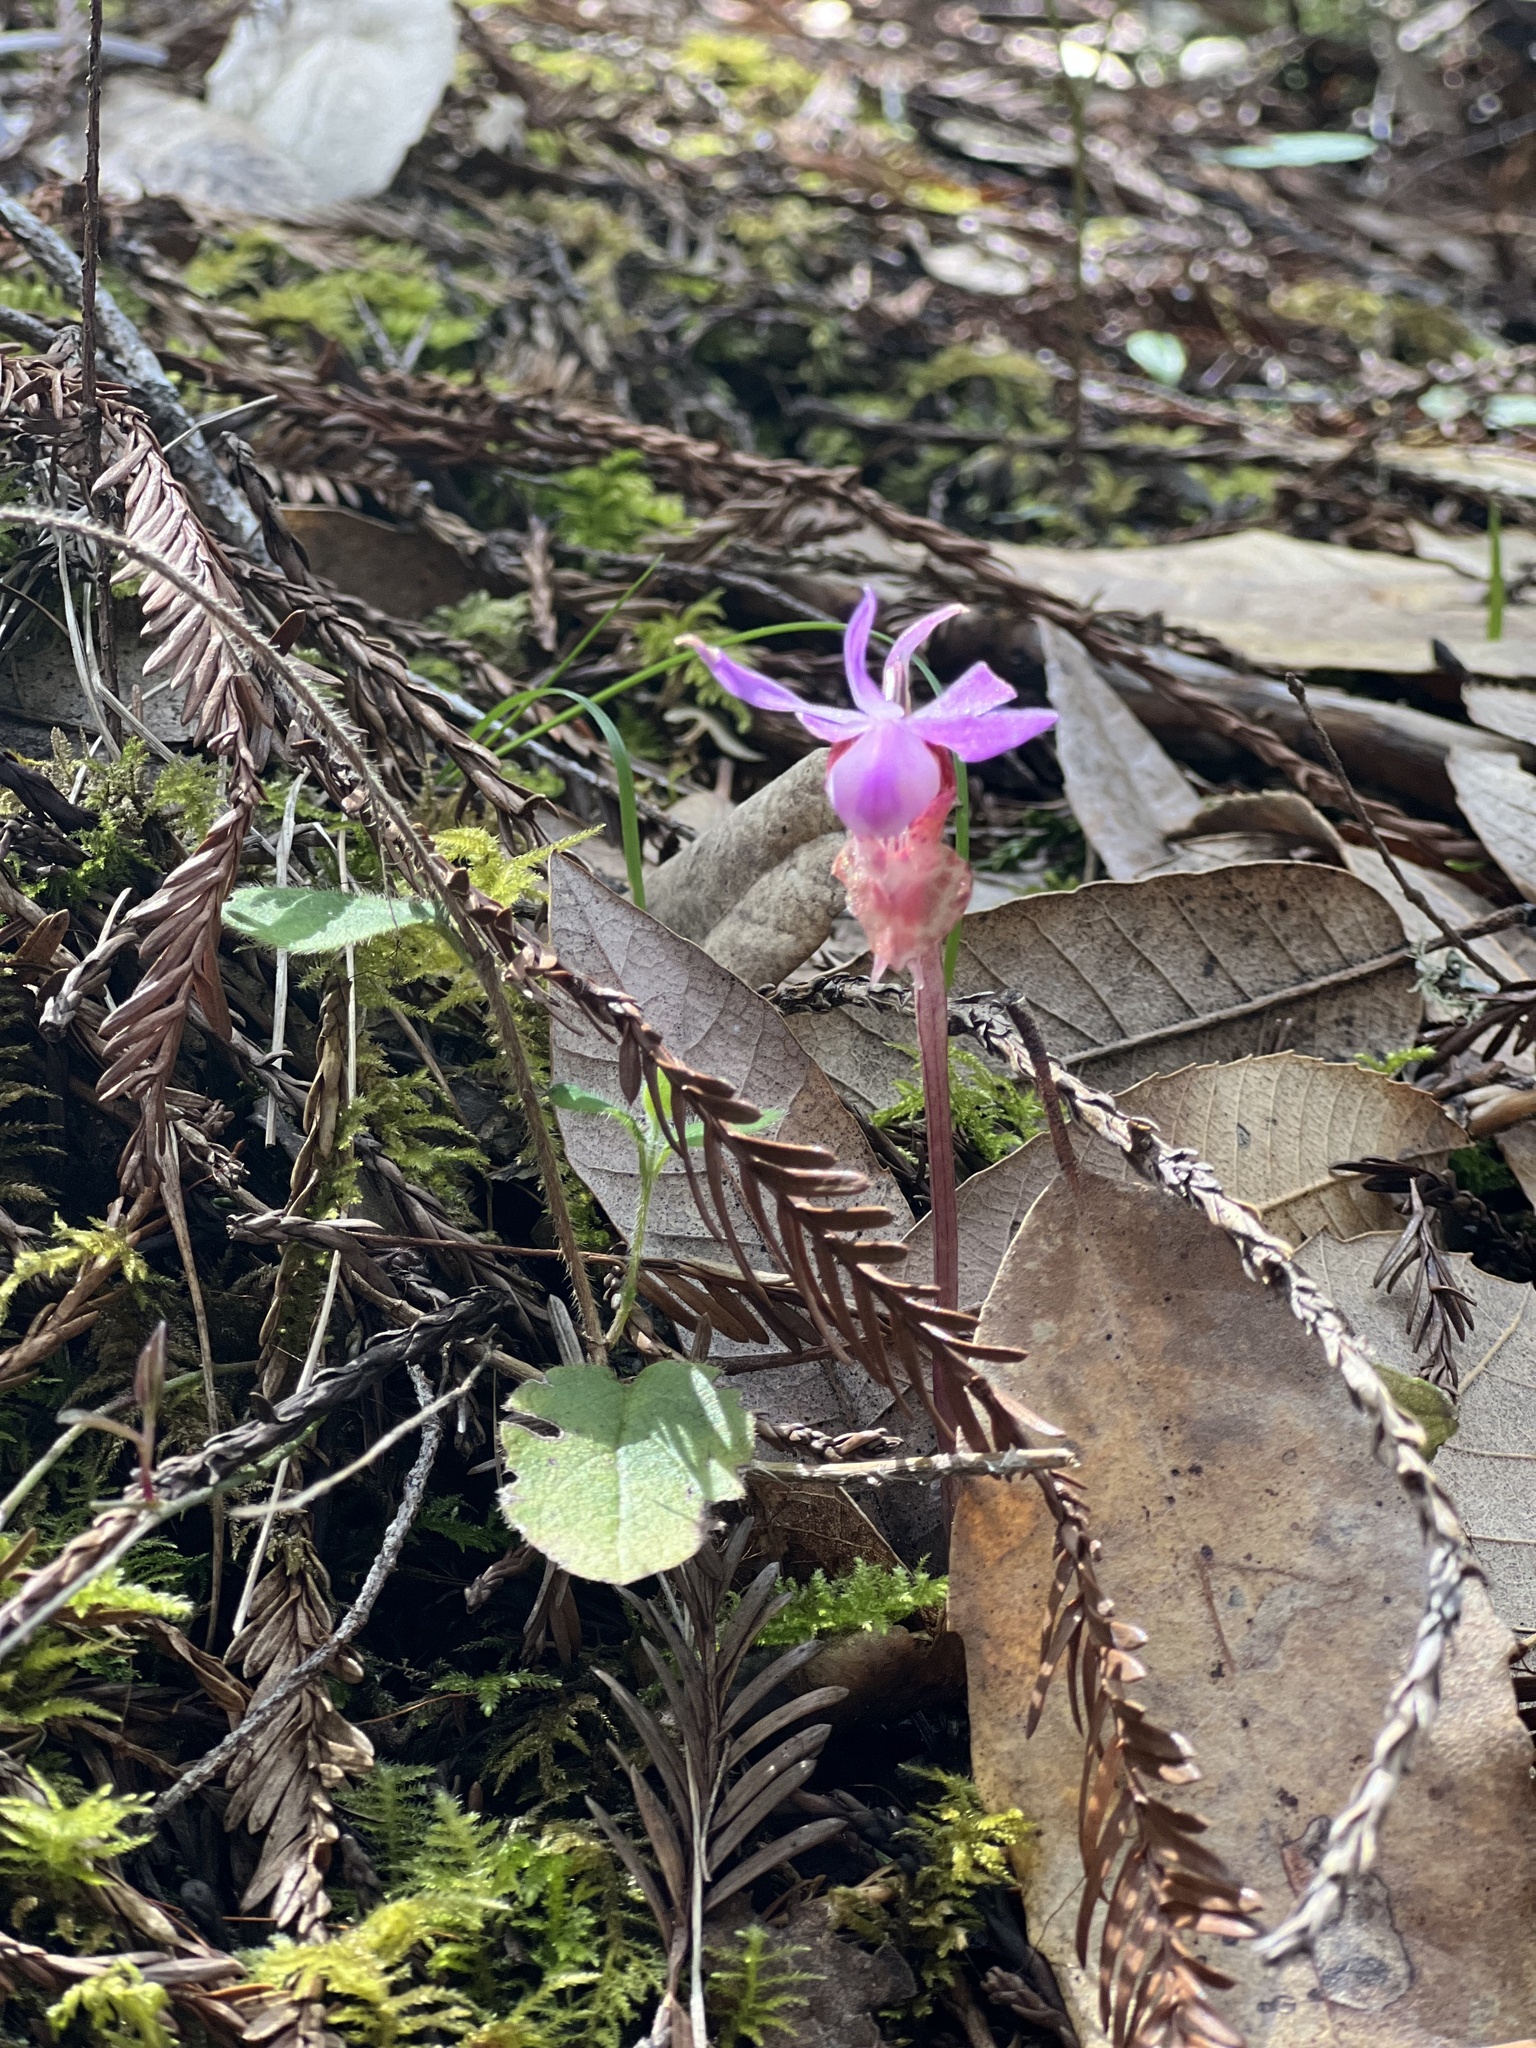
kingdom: Plantae
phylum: Tracheophyta
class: Liliopsida
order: Asparagales
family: Orchidaceae
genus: Calypso
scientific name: Calypso bulbosa
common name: Calypso
